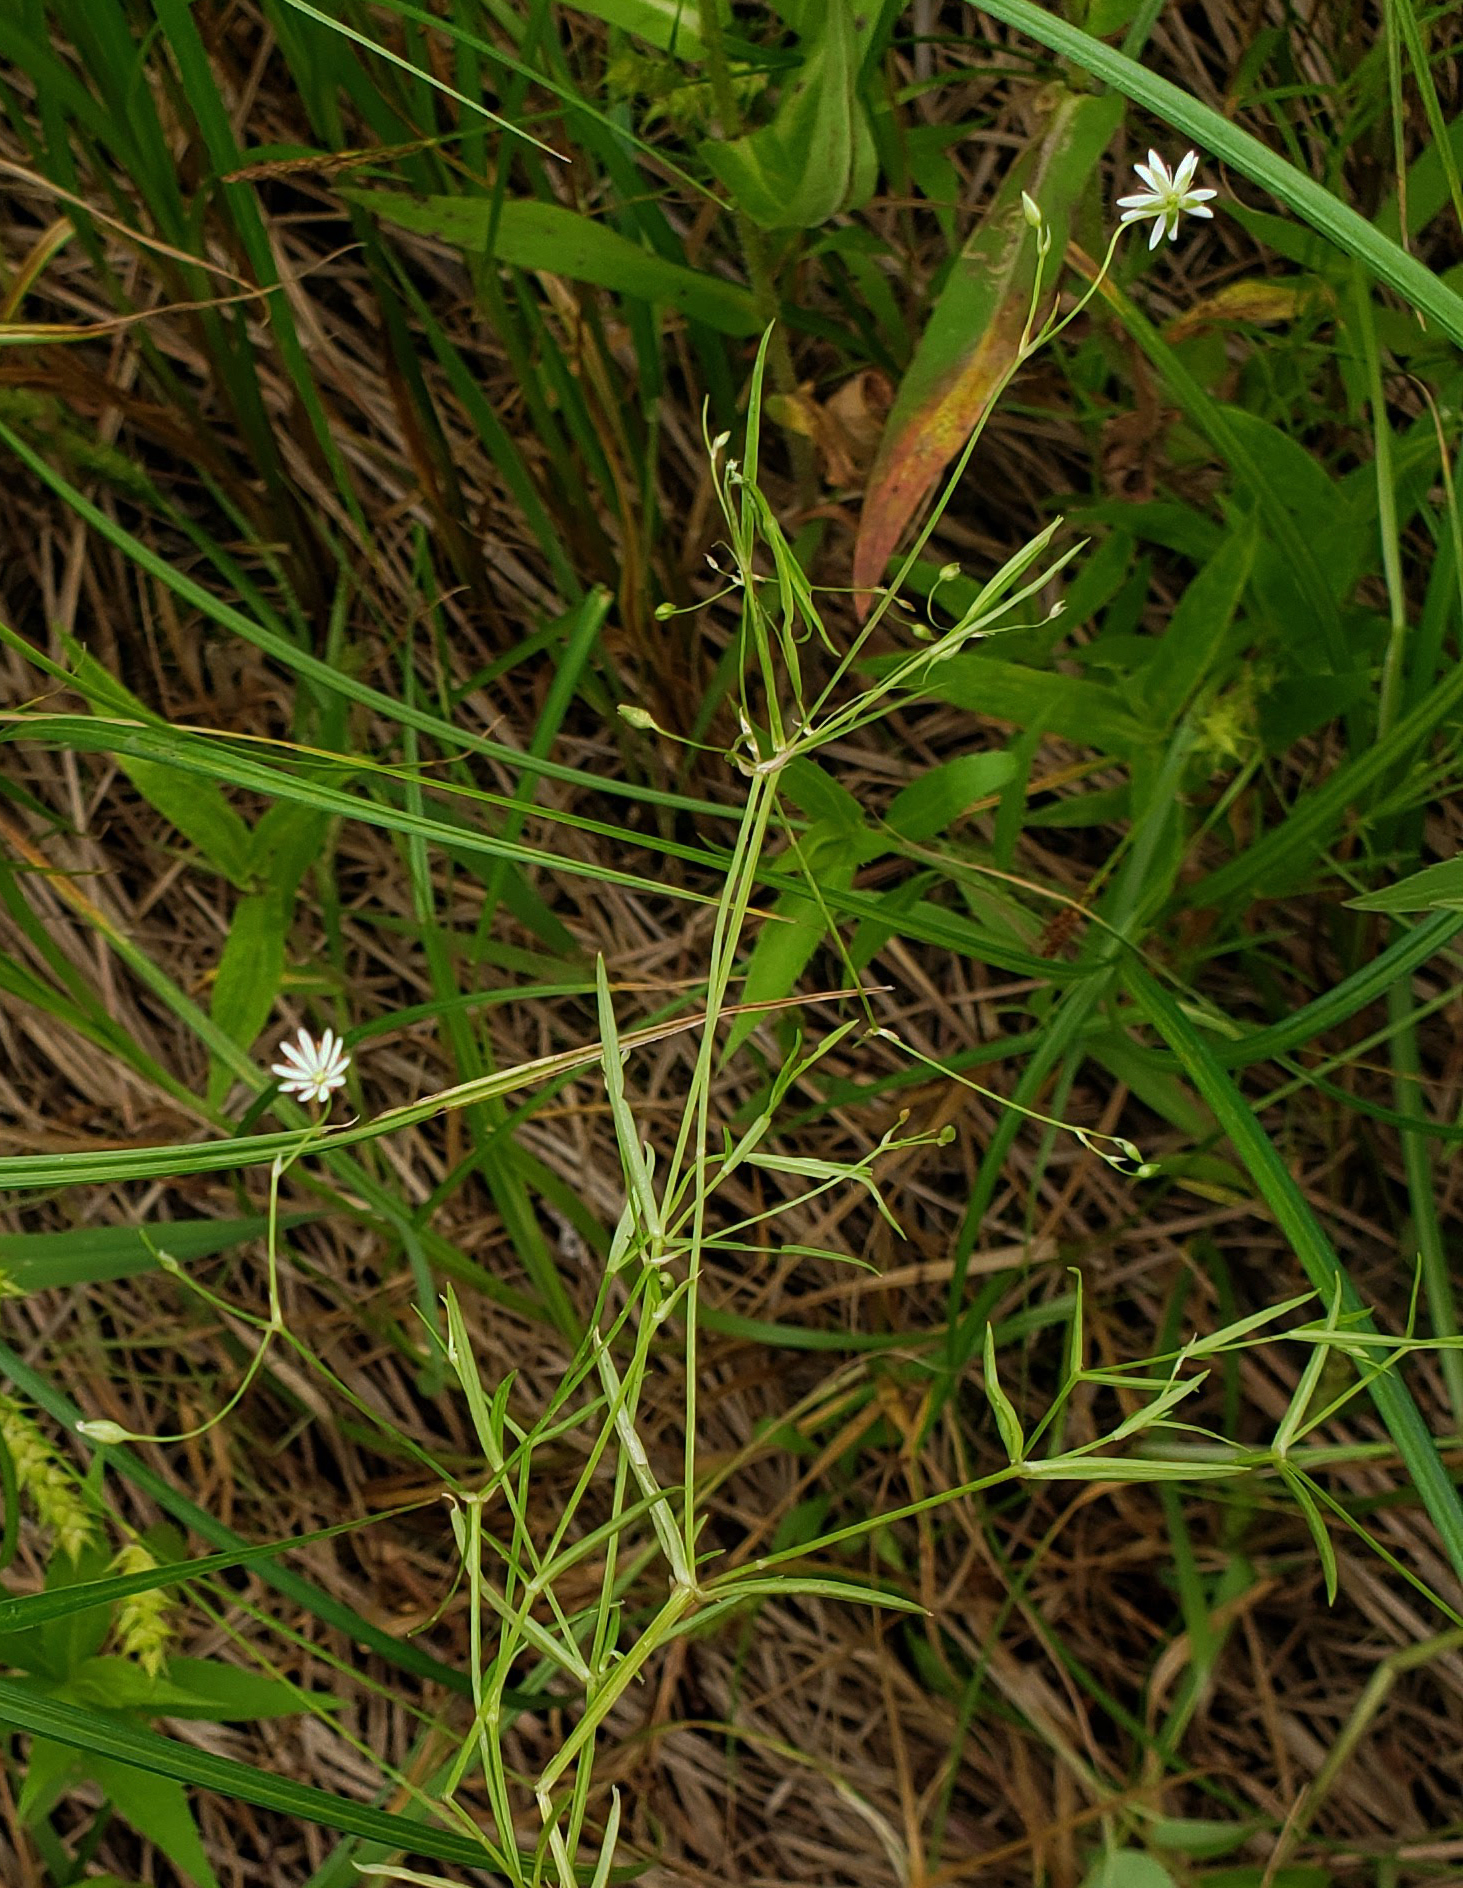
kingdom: Plantae
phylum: Tracheophyta
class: Magnoliopsida
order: Caryophyllales
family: Caryophyllaceae
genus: Stellaria
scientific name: Stellaria longifolia
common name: Long-leaved chickweed
